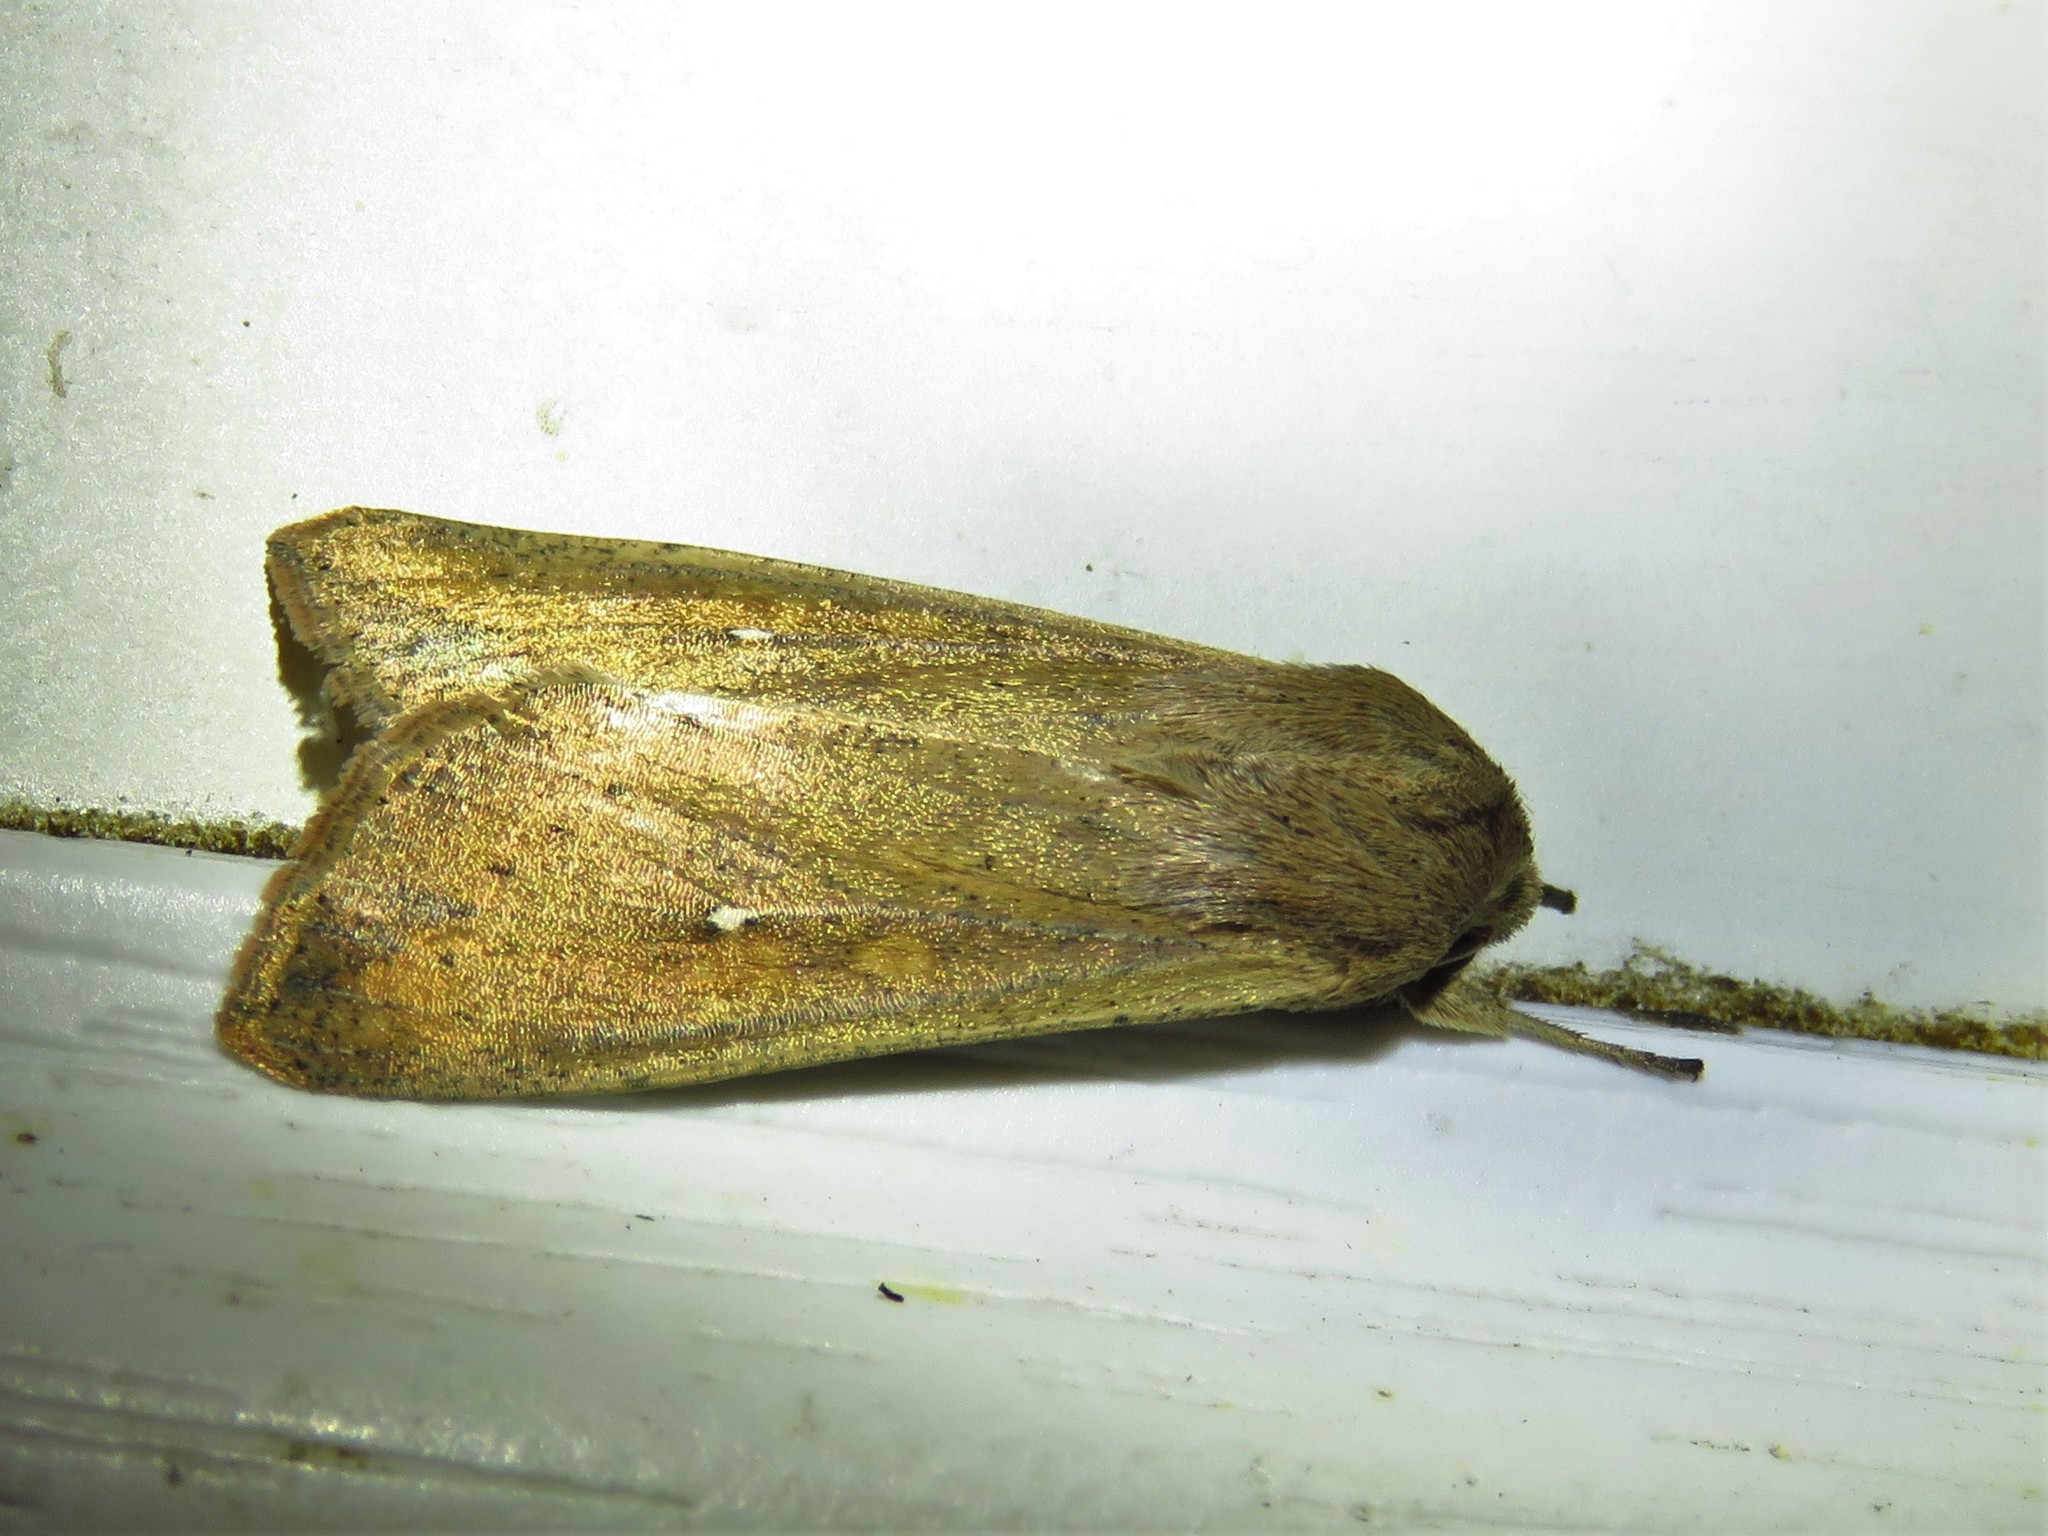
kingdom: Animalia
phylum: Arthropoda
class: Insecta
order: Lepidoptera
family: Noctuidae
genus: Mythimna
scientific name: Mythimna unipuncta
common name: White-speck
